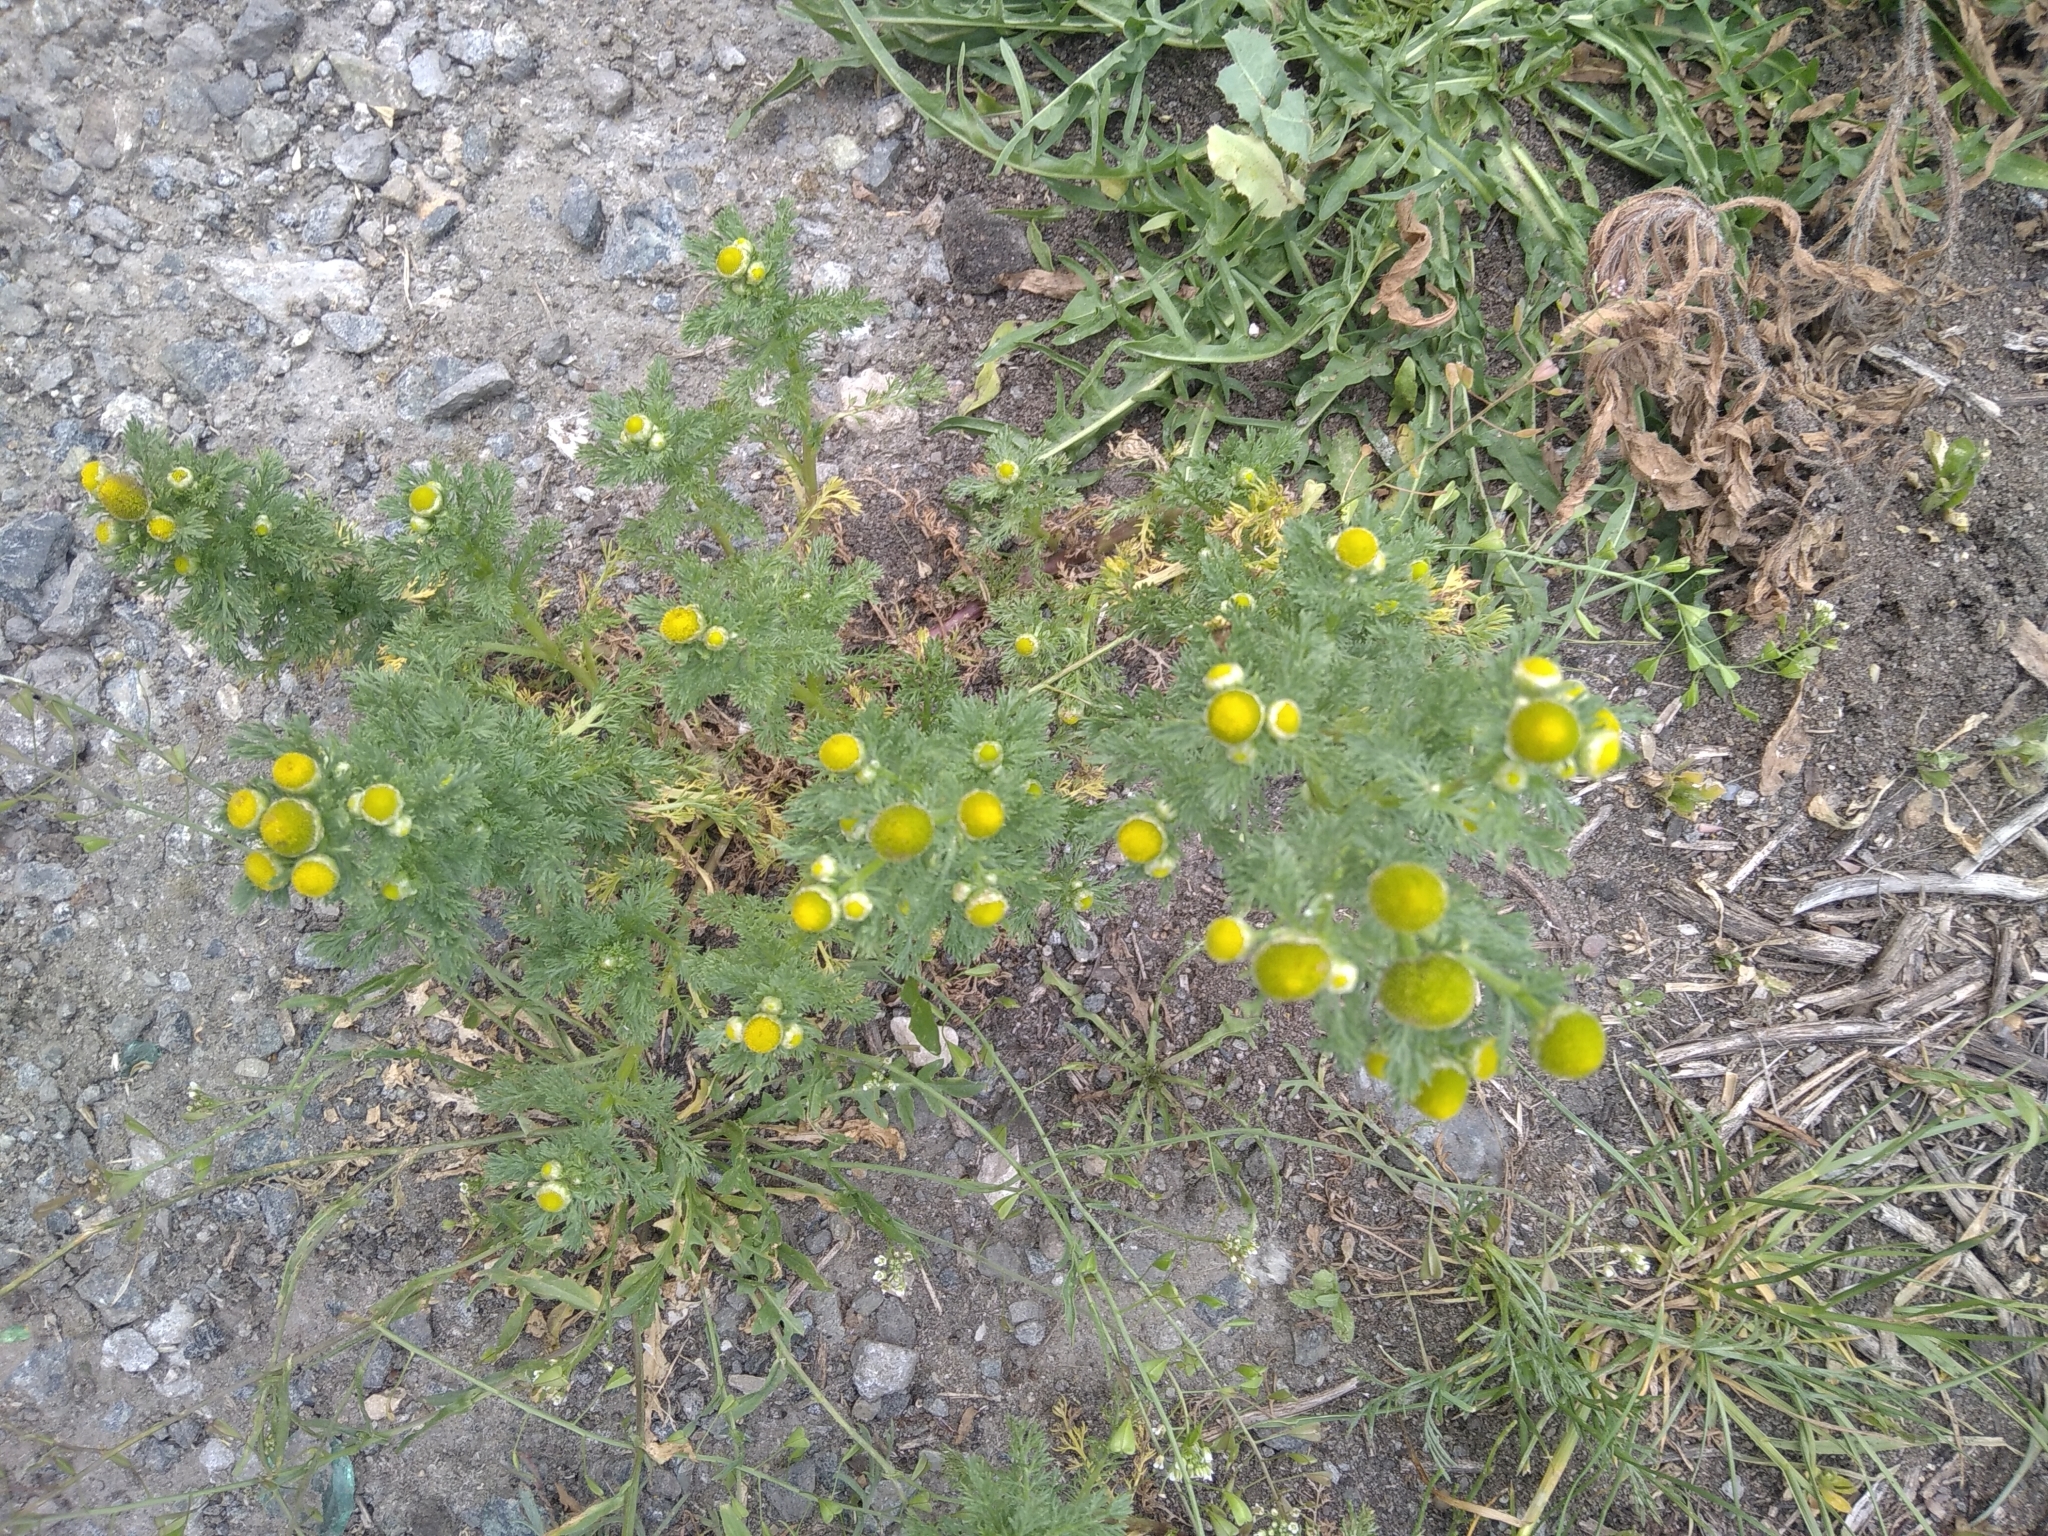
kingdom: Plantae
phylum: Tracheophyta
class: Magnoliopsida
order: Asterales
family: Asteraceae
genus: Matricaria
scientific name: Matricaria discoidea
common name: Disc mayweed
